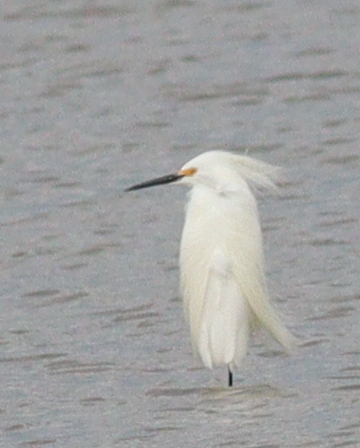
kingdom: Animalia
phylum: Chordata
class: Aves
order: Pelecaniformes
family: Ardeidae
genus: Egretta
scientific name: Egretta thula
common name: Snowy egret
